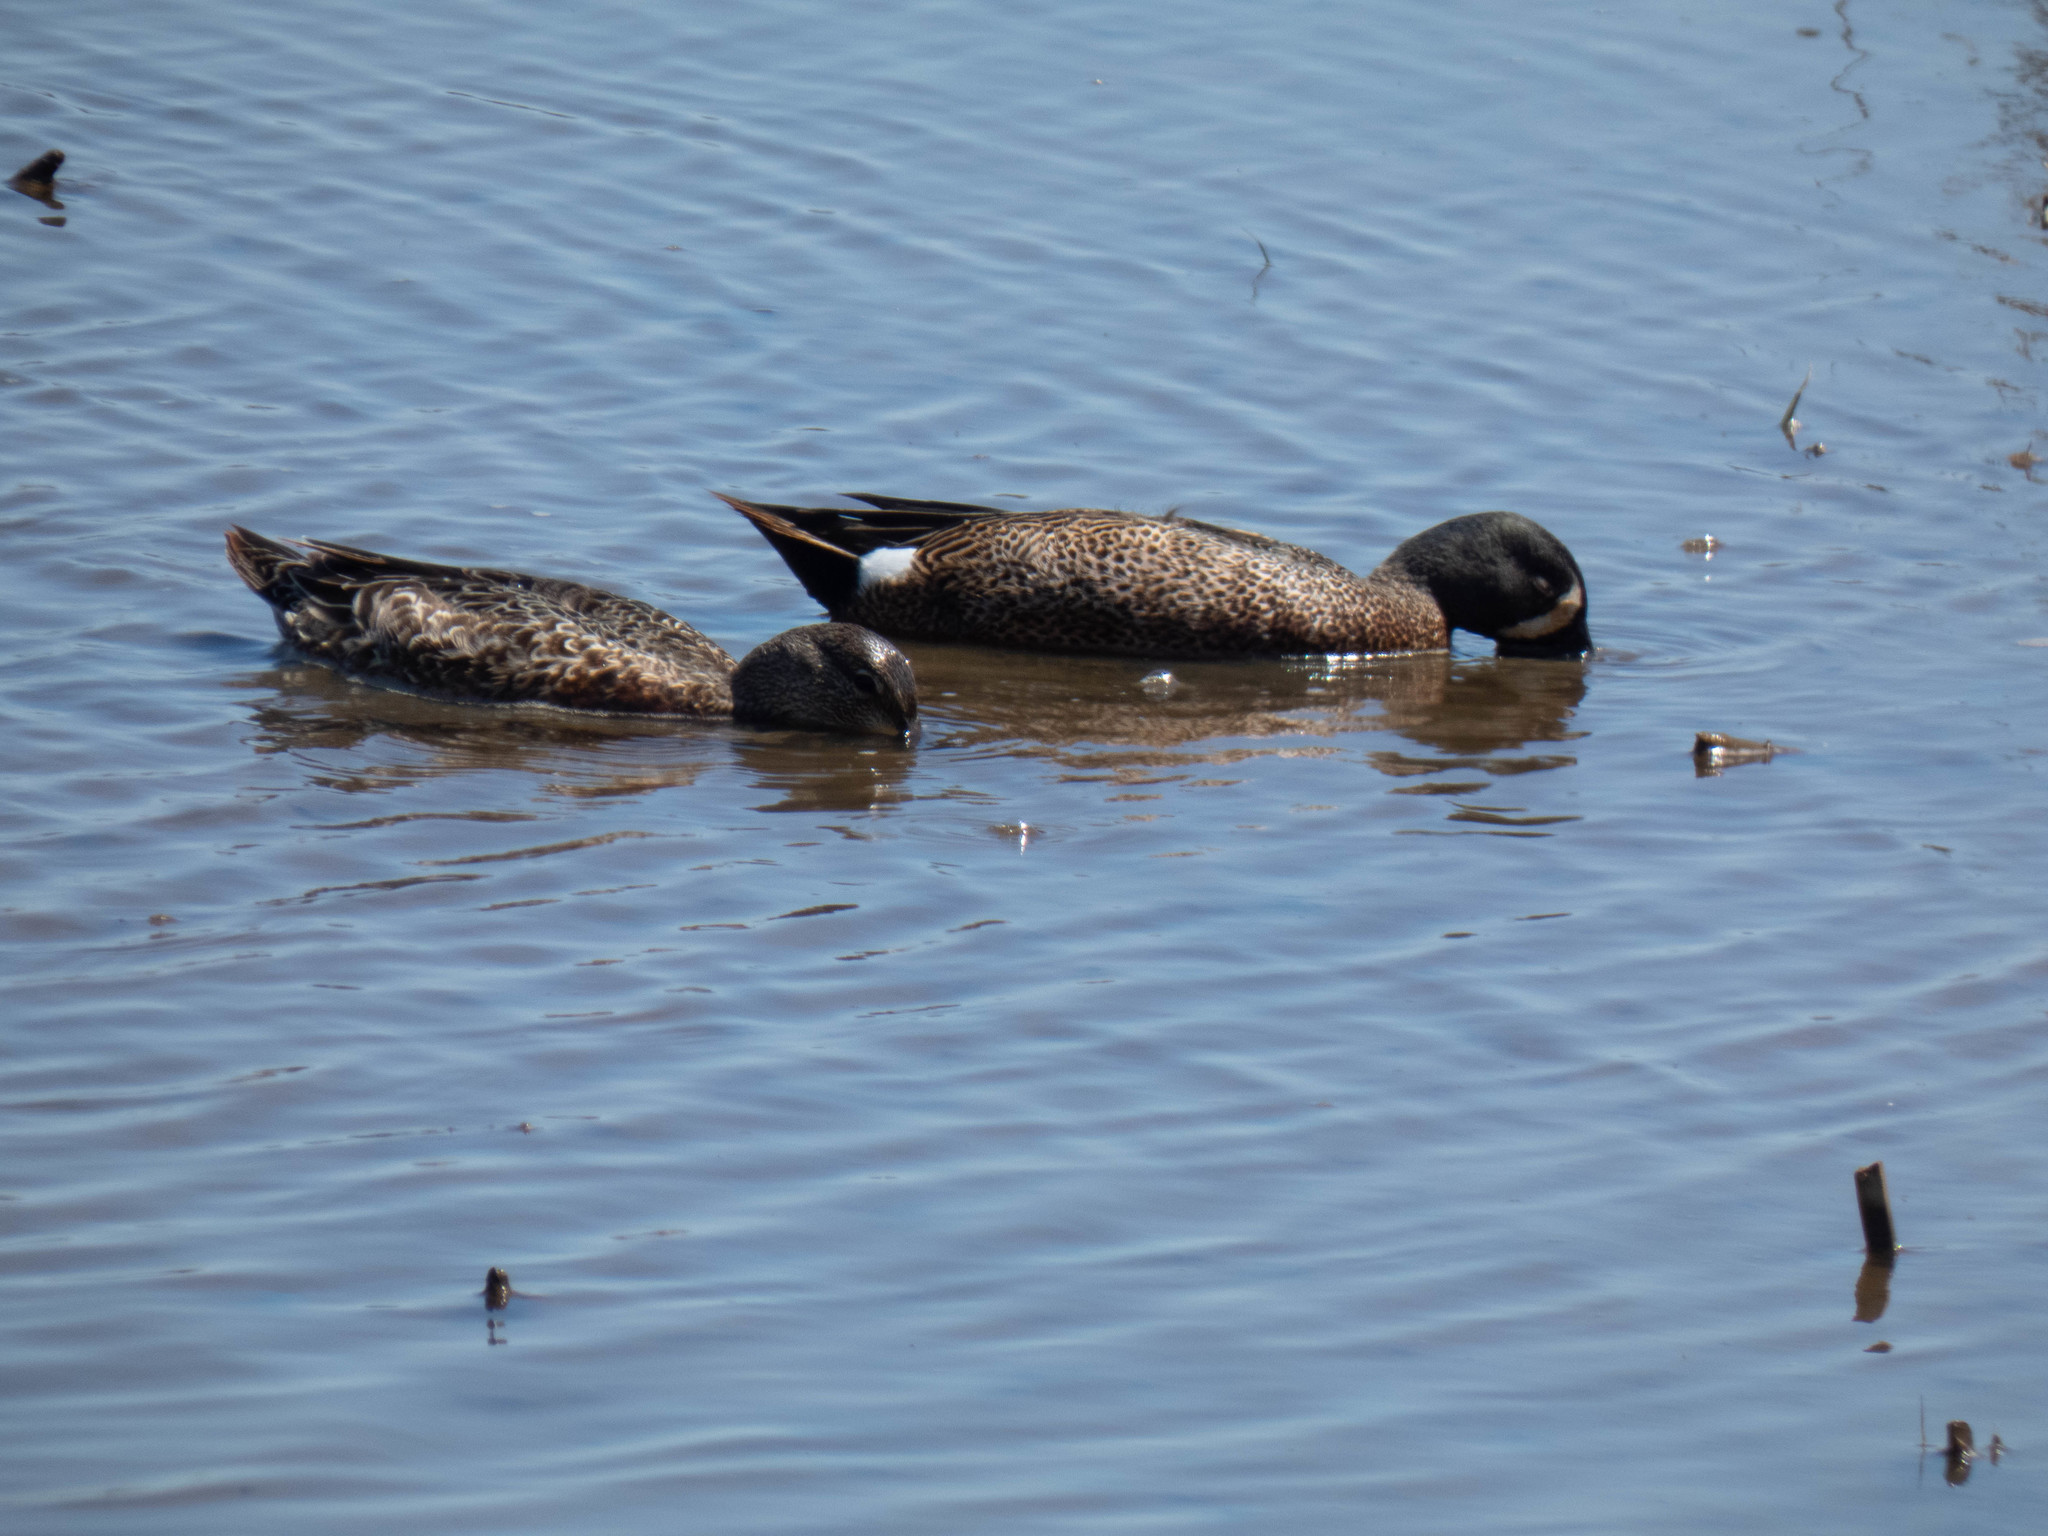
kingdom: Animalia
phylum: Chordata
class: Aves
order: Anseriformes
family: Anatidae
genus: Spatula
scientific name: Spatula discors
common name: Blue-winged teal
